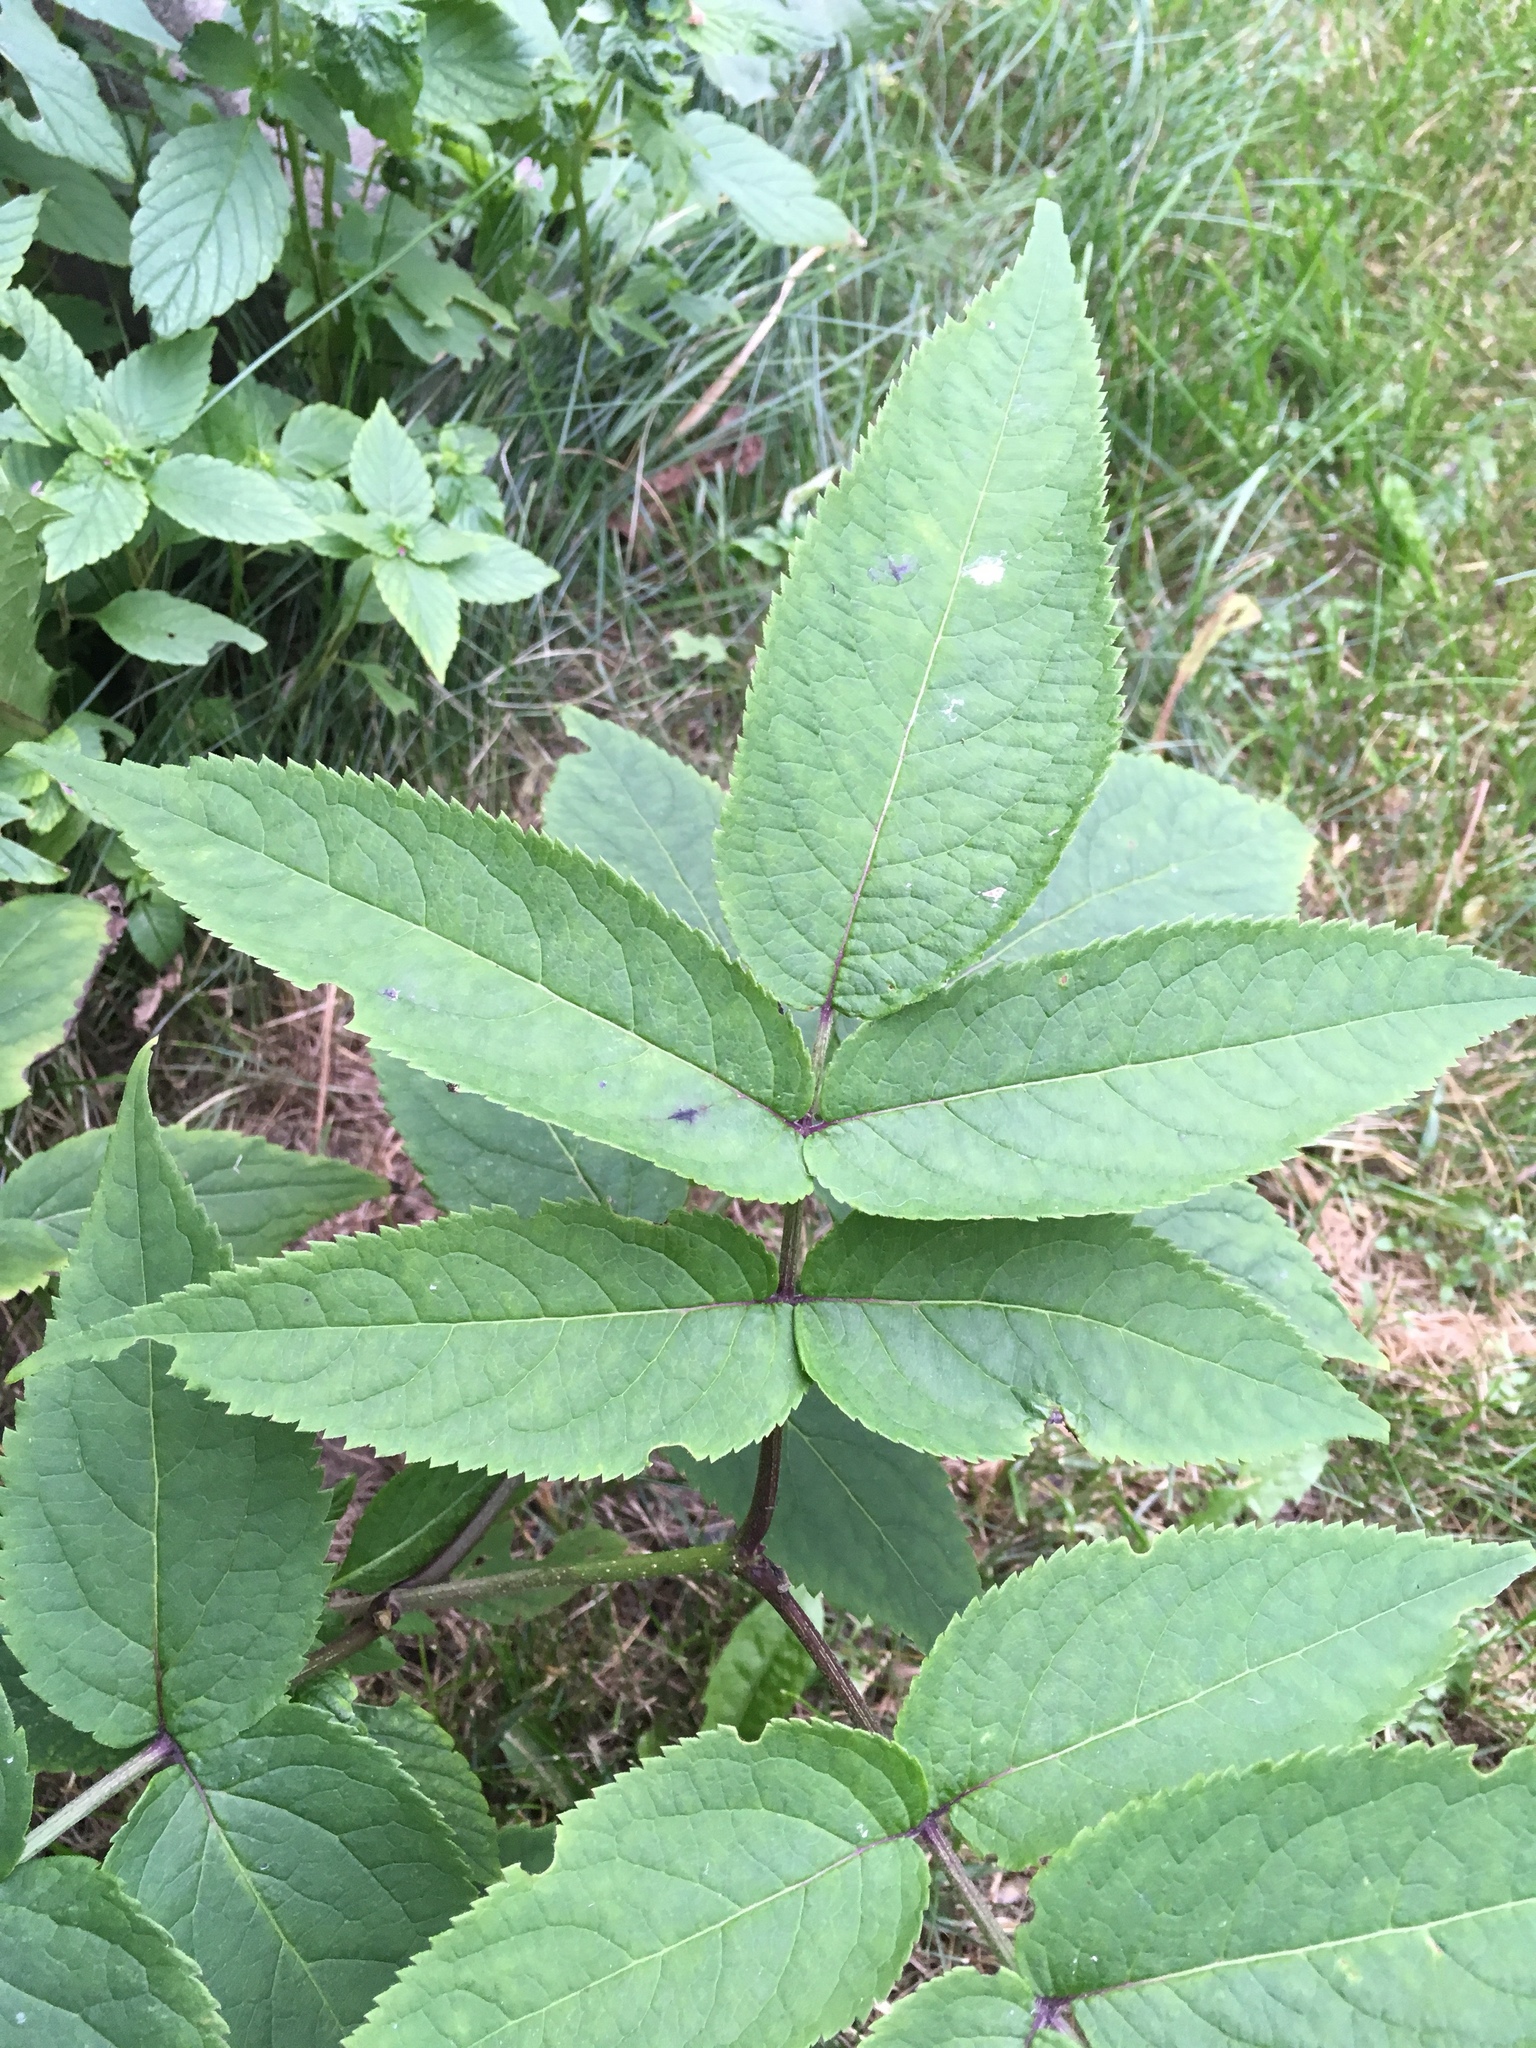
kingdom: Plantae
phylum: Tracheophyta
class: Magnoliopsida
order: Dipsacales
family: Viburnaceae
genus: Sambucus
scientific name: Sambucus
